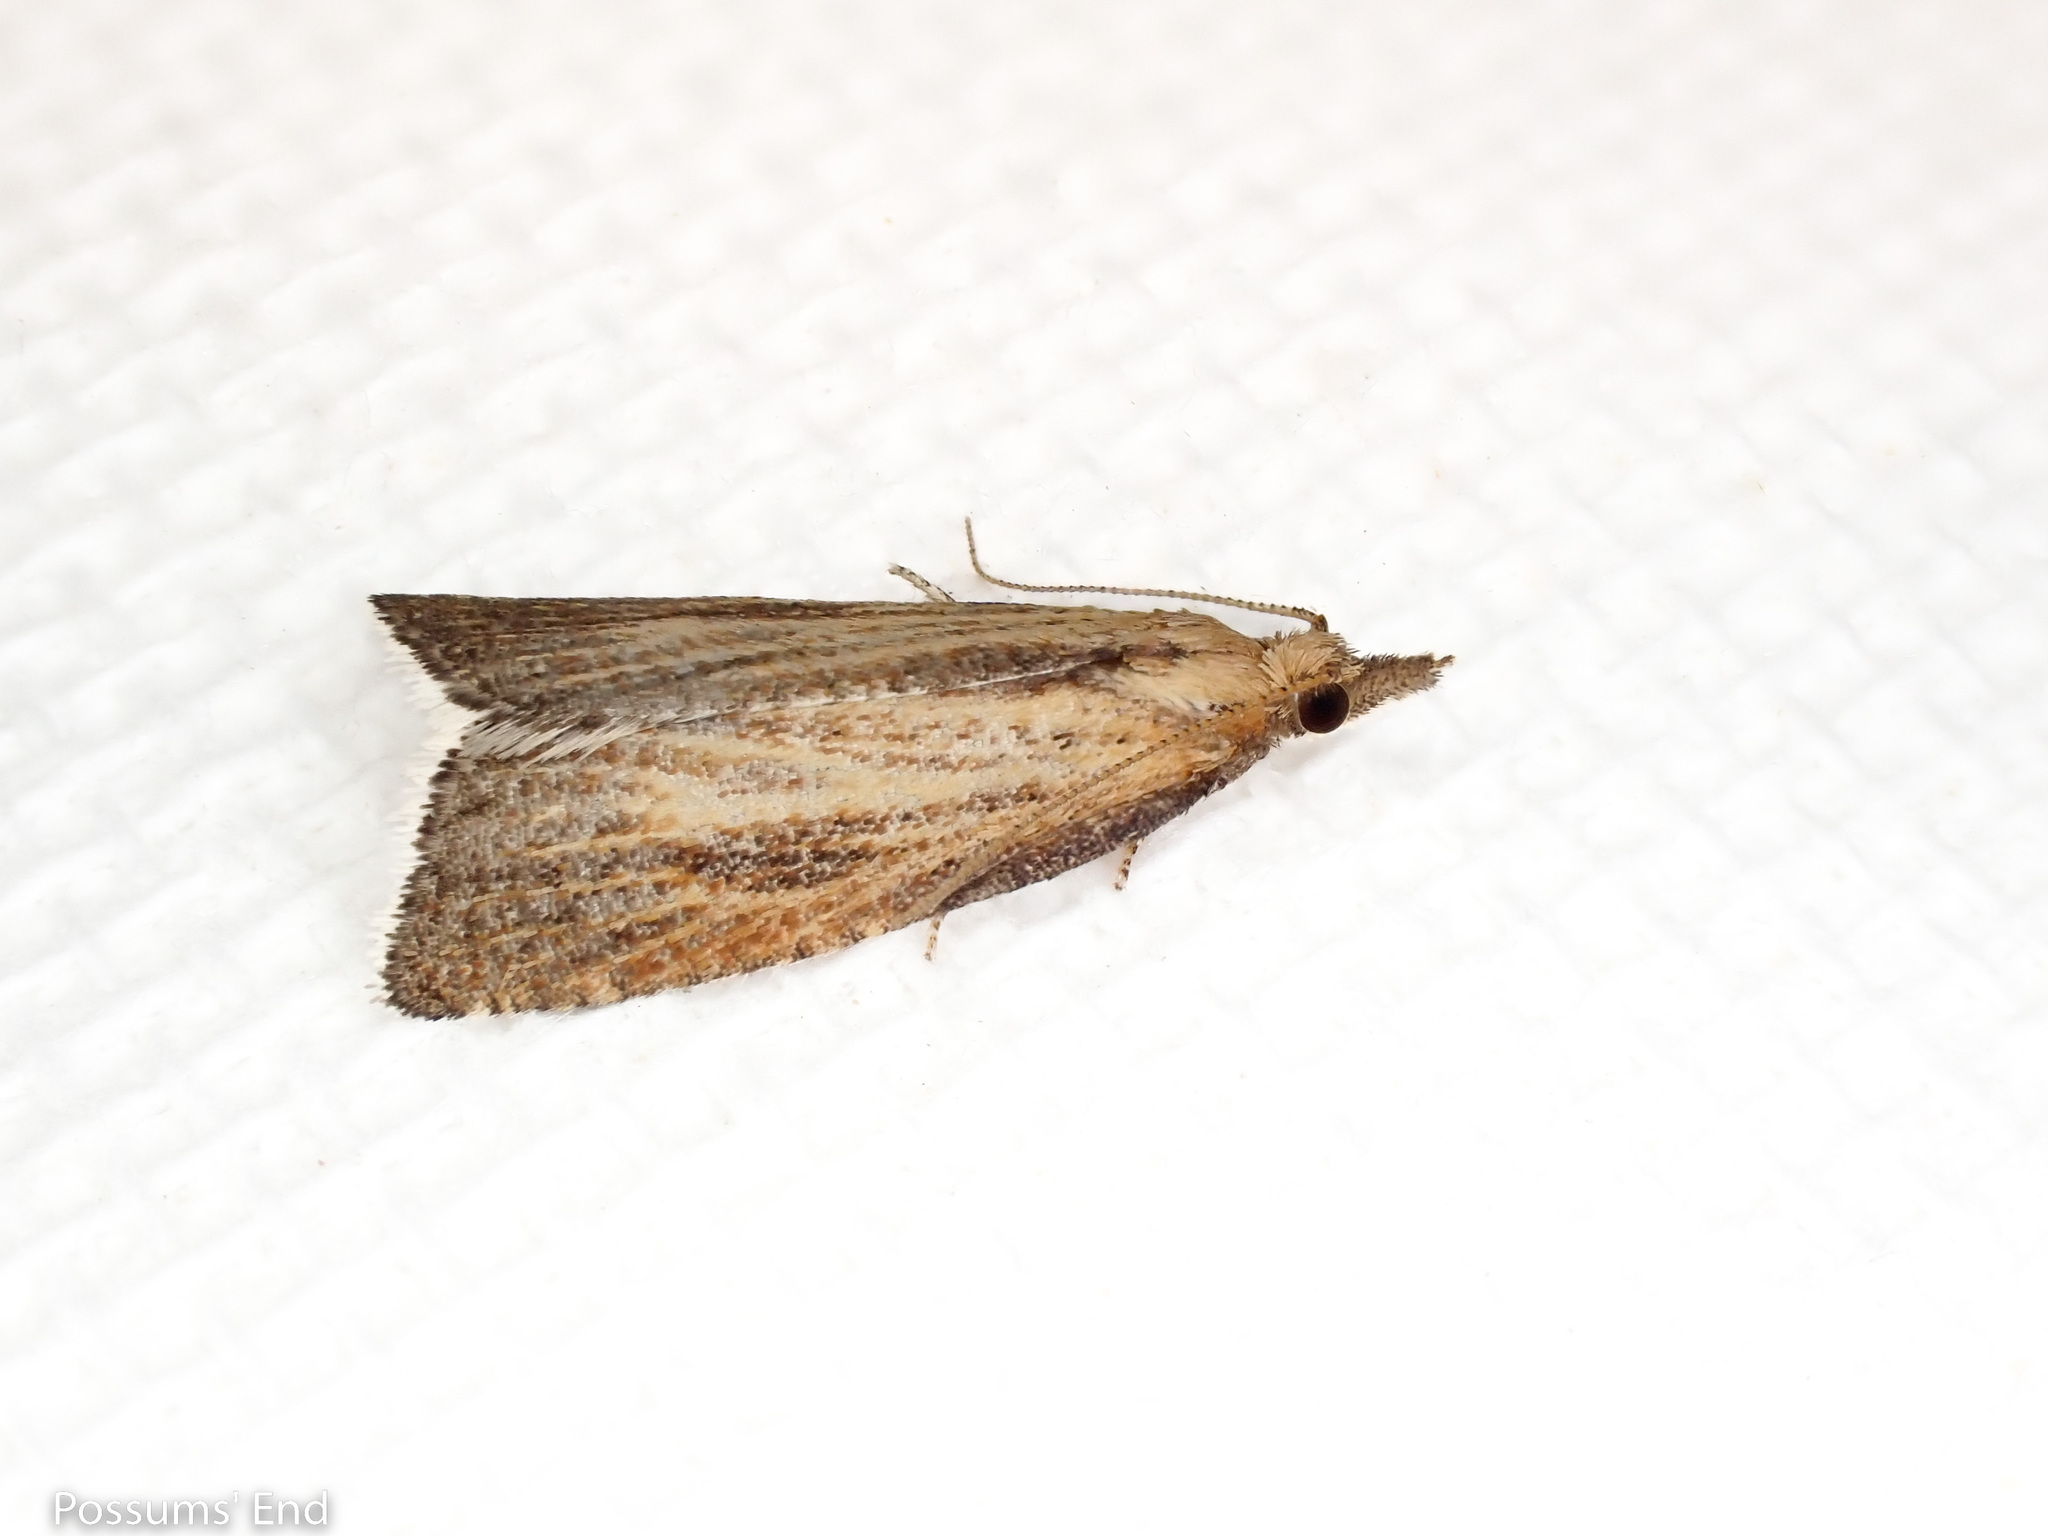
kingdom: Animalia
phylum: Arthropoda
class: Insecta
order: Lepidoptera
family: Tortricidae
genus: Catamacta
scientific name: Catamacta lotinana
